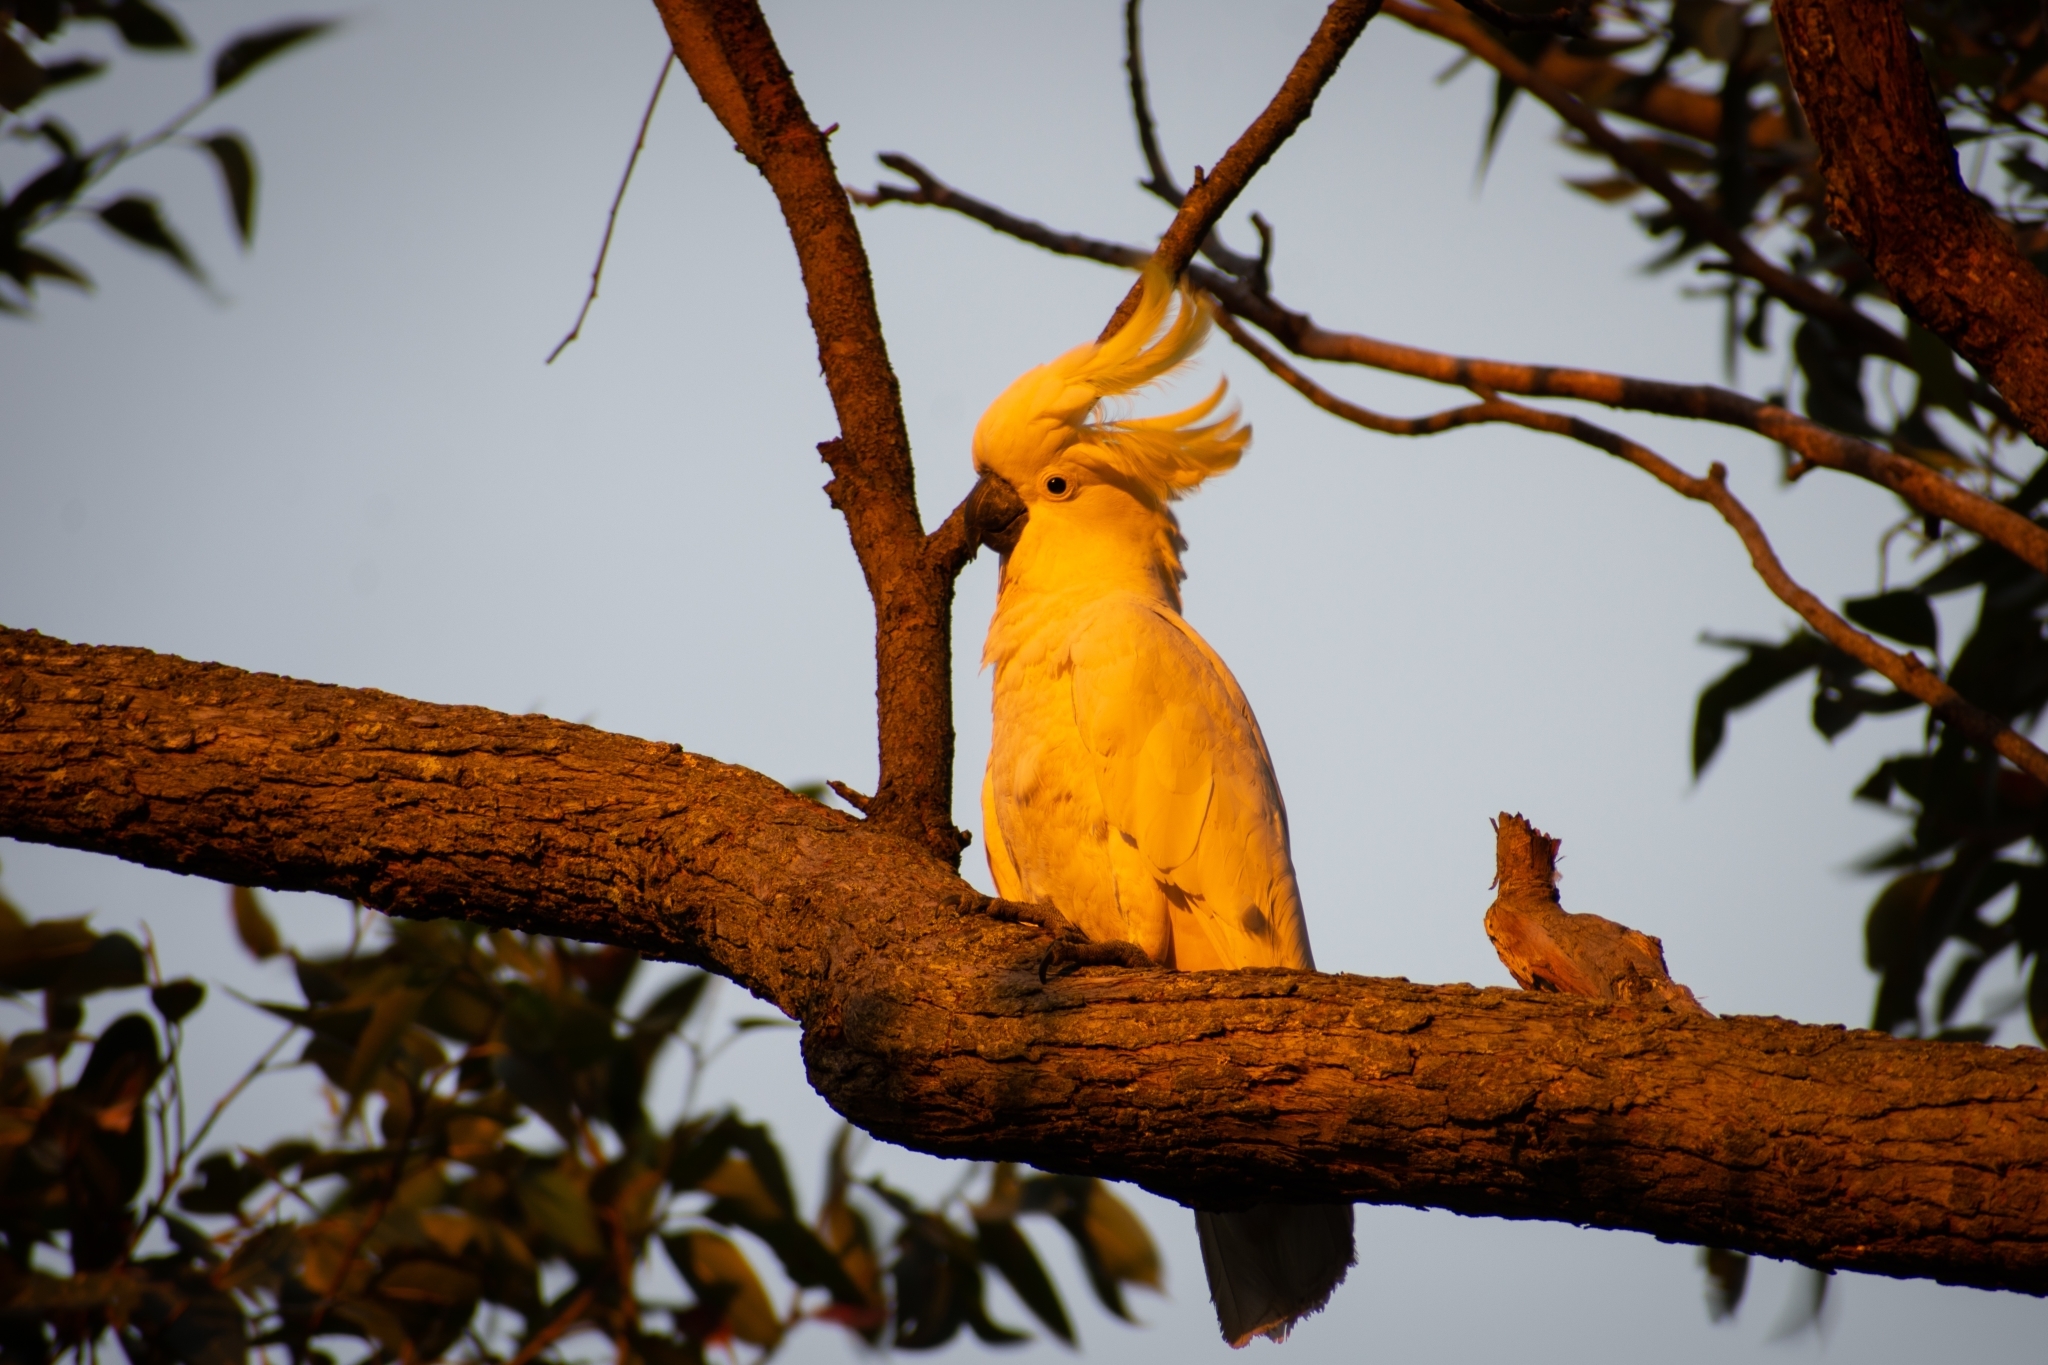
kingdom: Animalia
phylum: Chordata
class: Aves
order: Psittaciformes
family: Psittacidae
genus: Cacatua
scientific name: Cacatua galerita
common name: Sulphur-crested cockatoo
